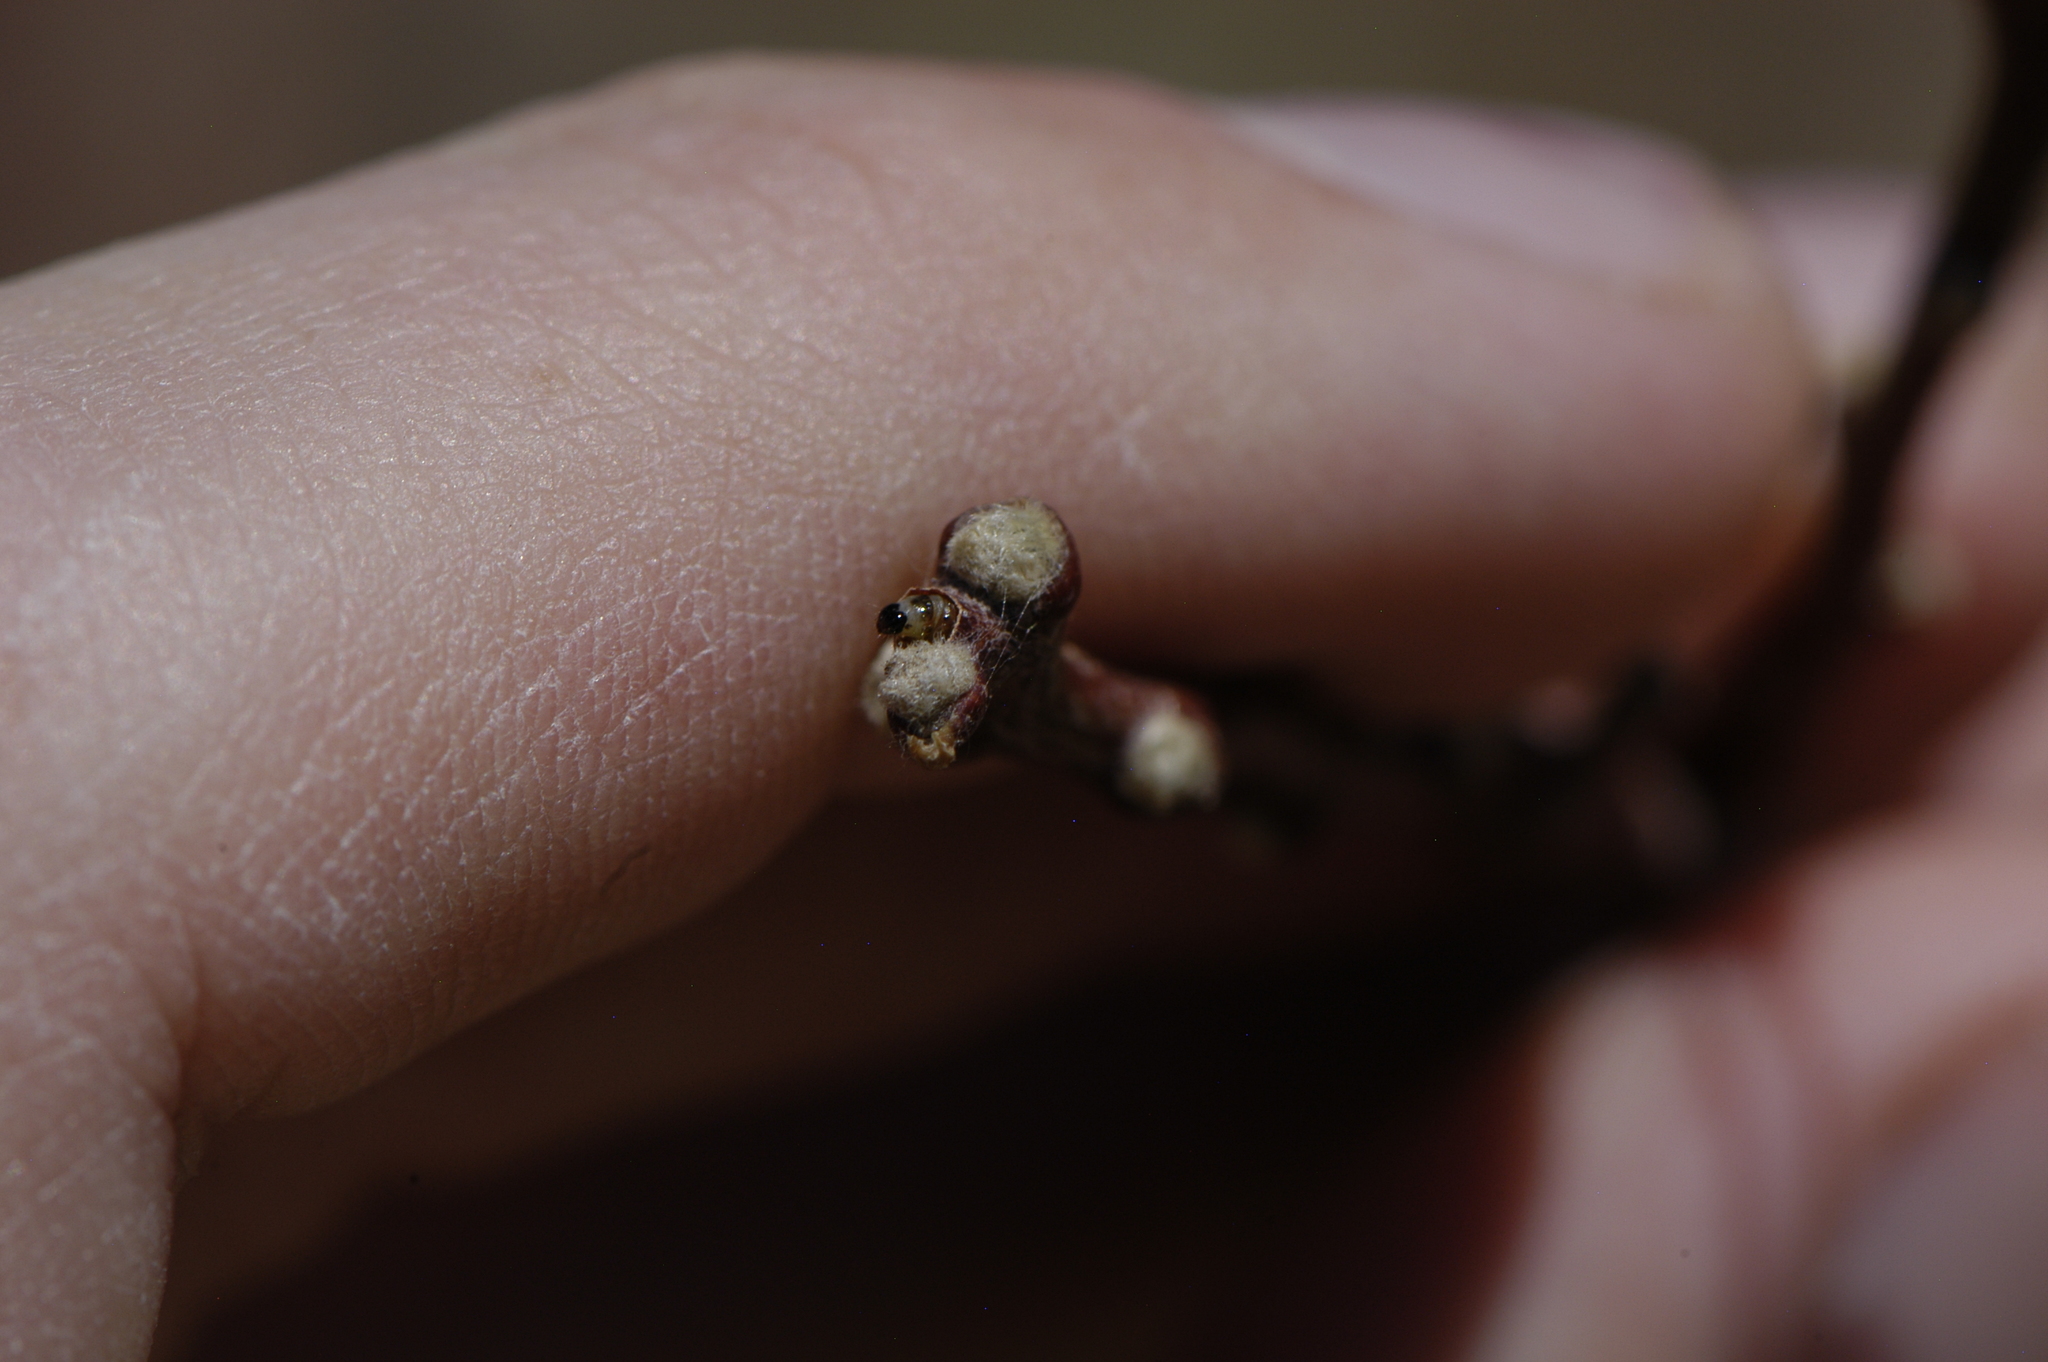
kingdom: Plantae
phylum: Tracheophyta
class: Magnoliopsida
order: Sapindales
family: Rutaceae
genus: Ptelea
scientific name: Ptelea trifoliata
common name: Common hop-tree
